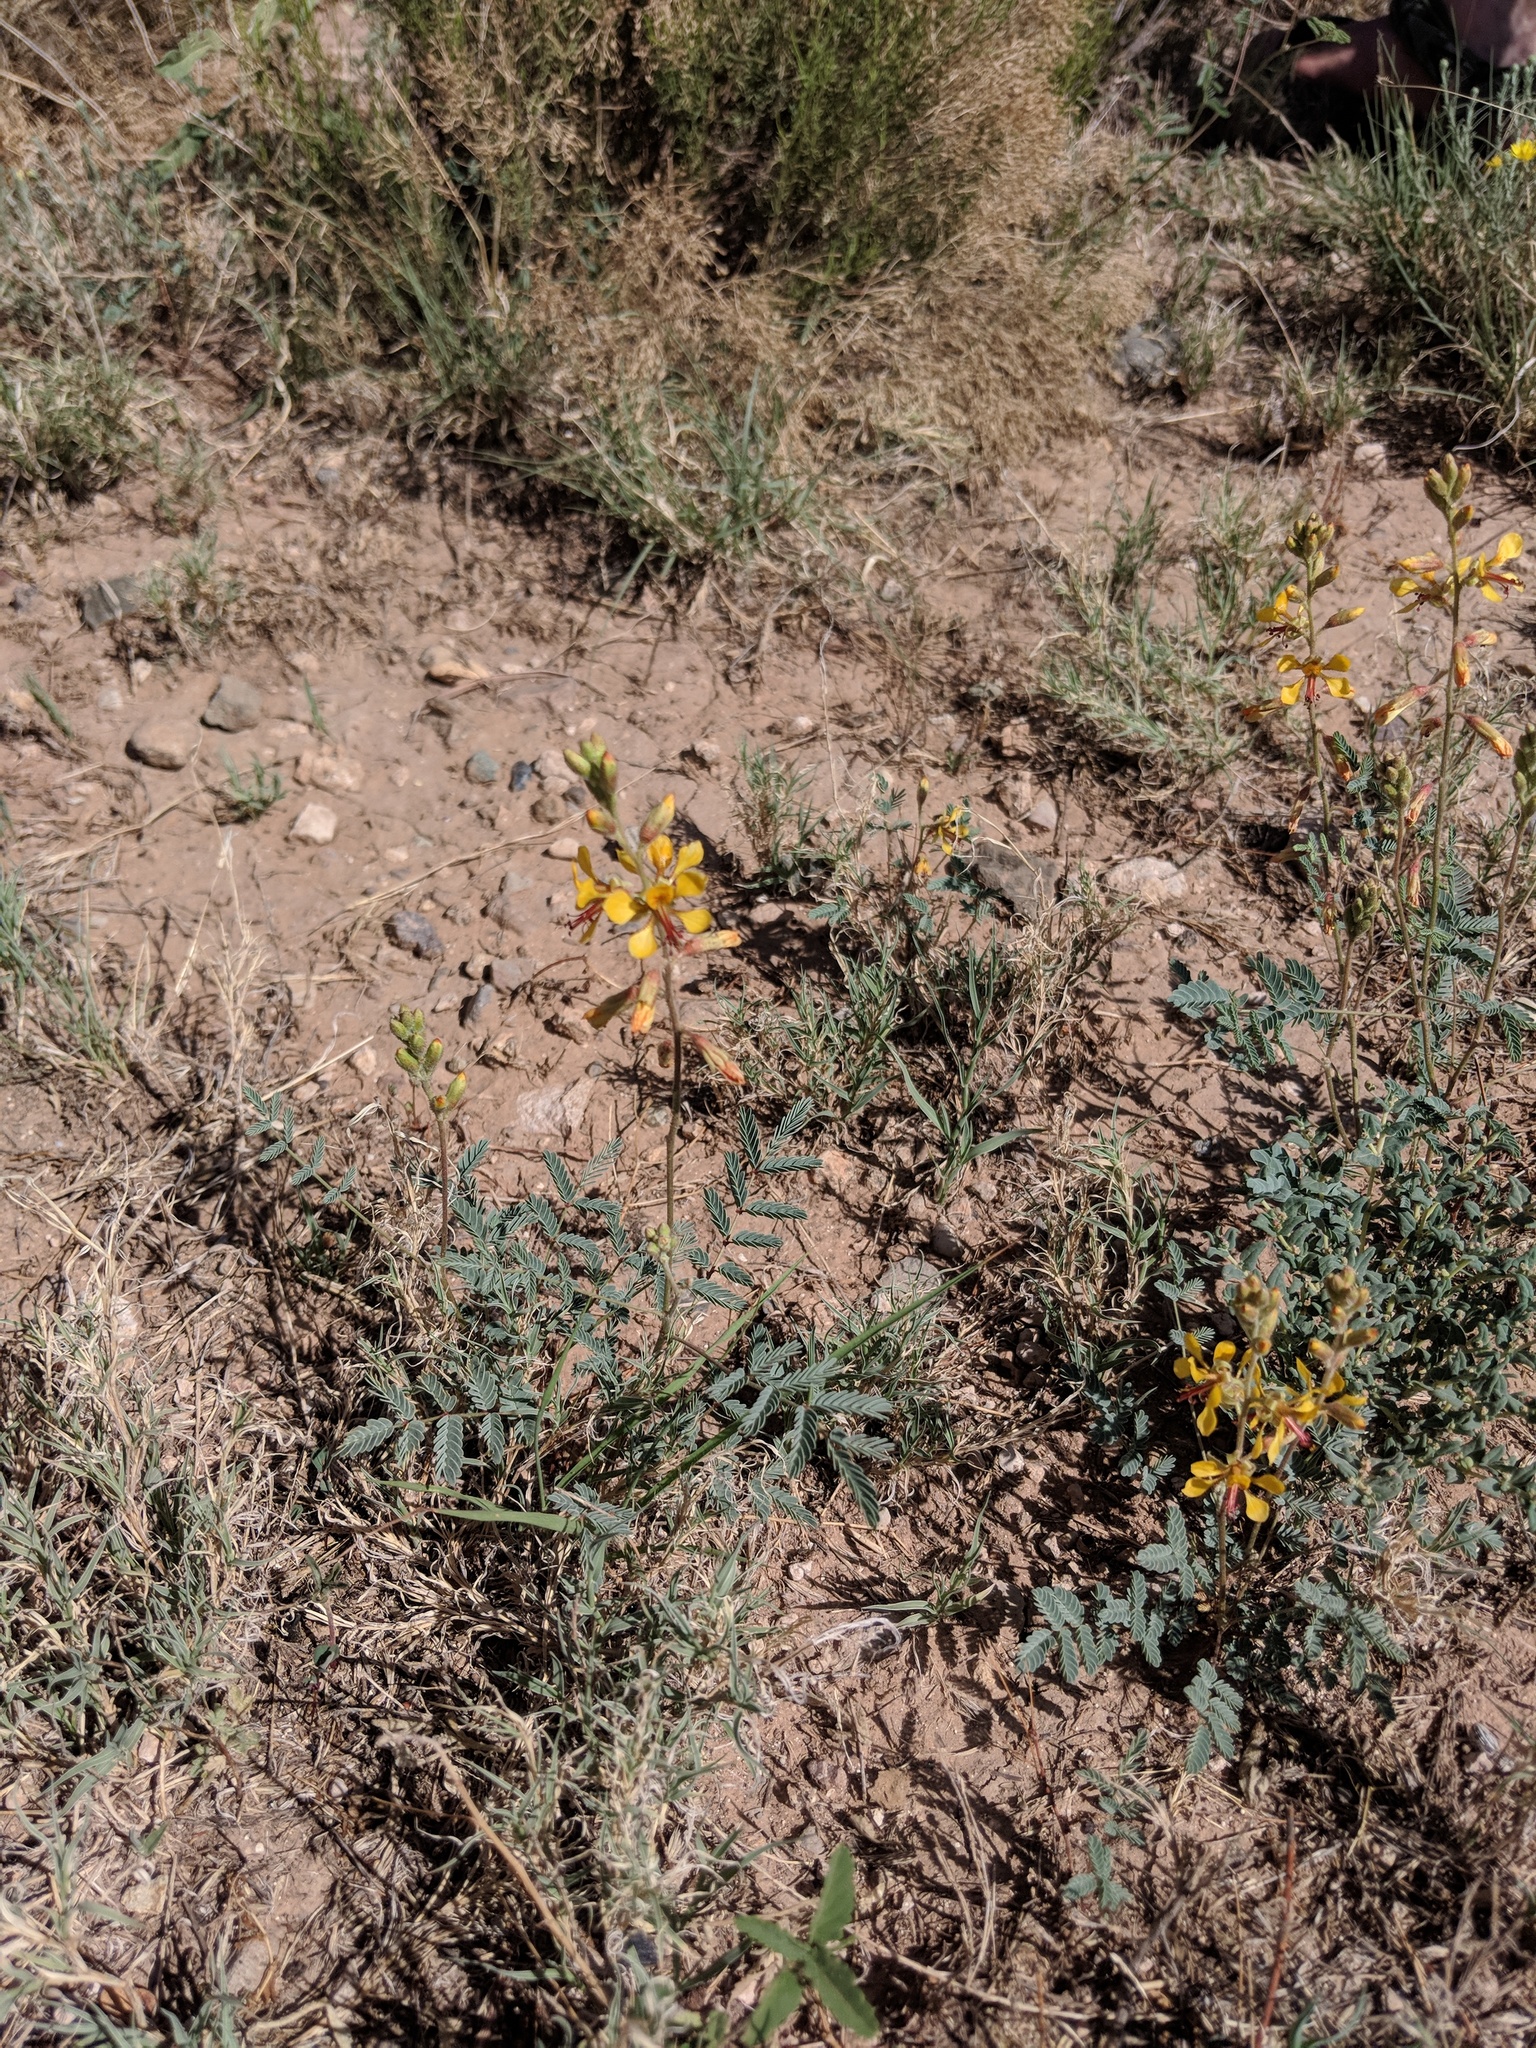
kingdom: Plantae
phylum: Tracheophyta
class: Magnoliopsida
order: Fabales
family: Fabaceae
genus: Hoffmannseggia
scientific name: Hoffmannseggia glauca
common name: Pignut
